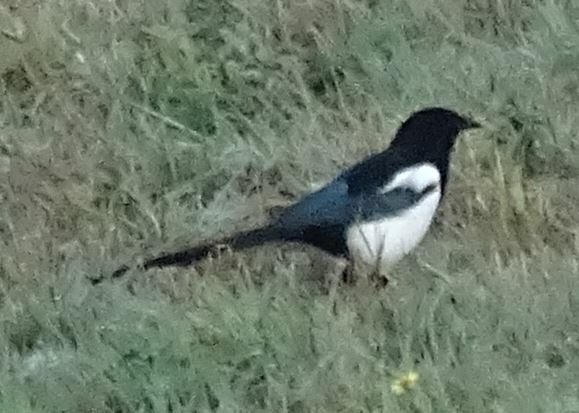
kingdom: Animalia
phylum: Chordata
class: Aves
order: Passeriformes
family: Corvidae
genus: Pica
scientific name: Pica pica
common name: Eurasian magpie
